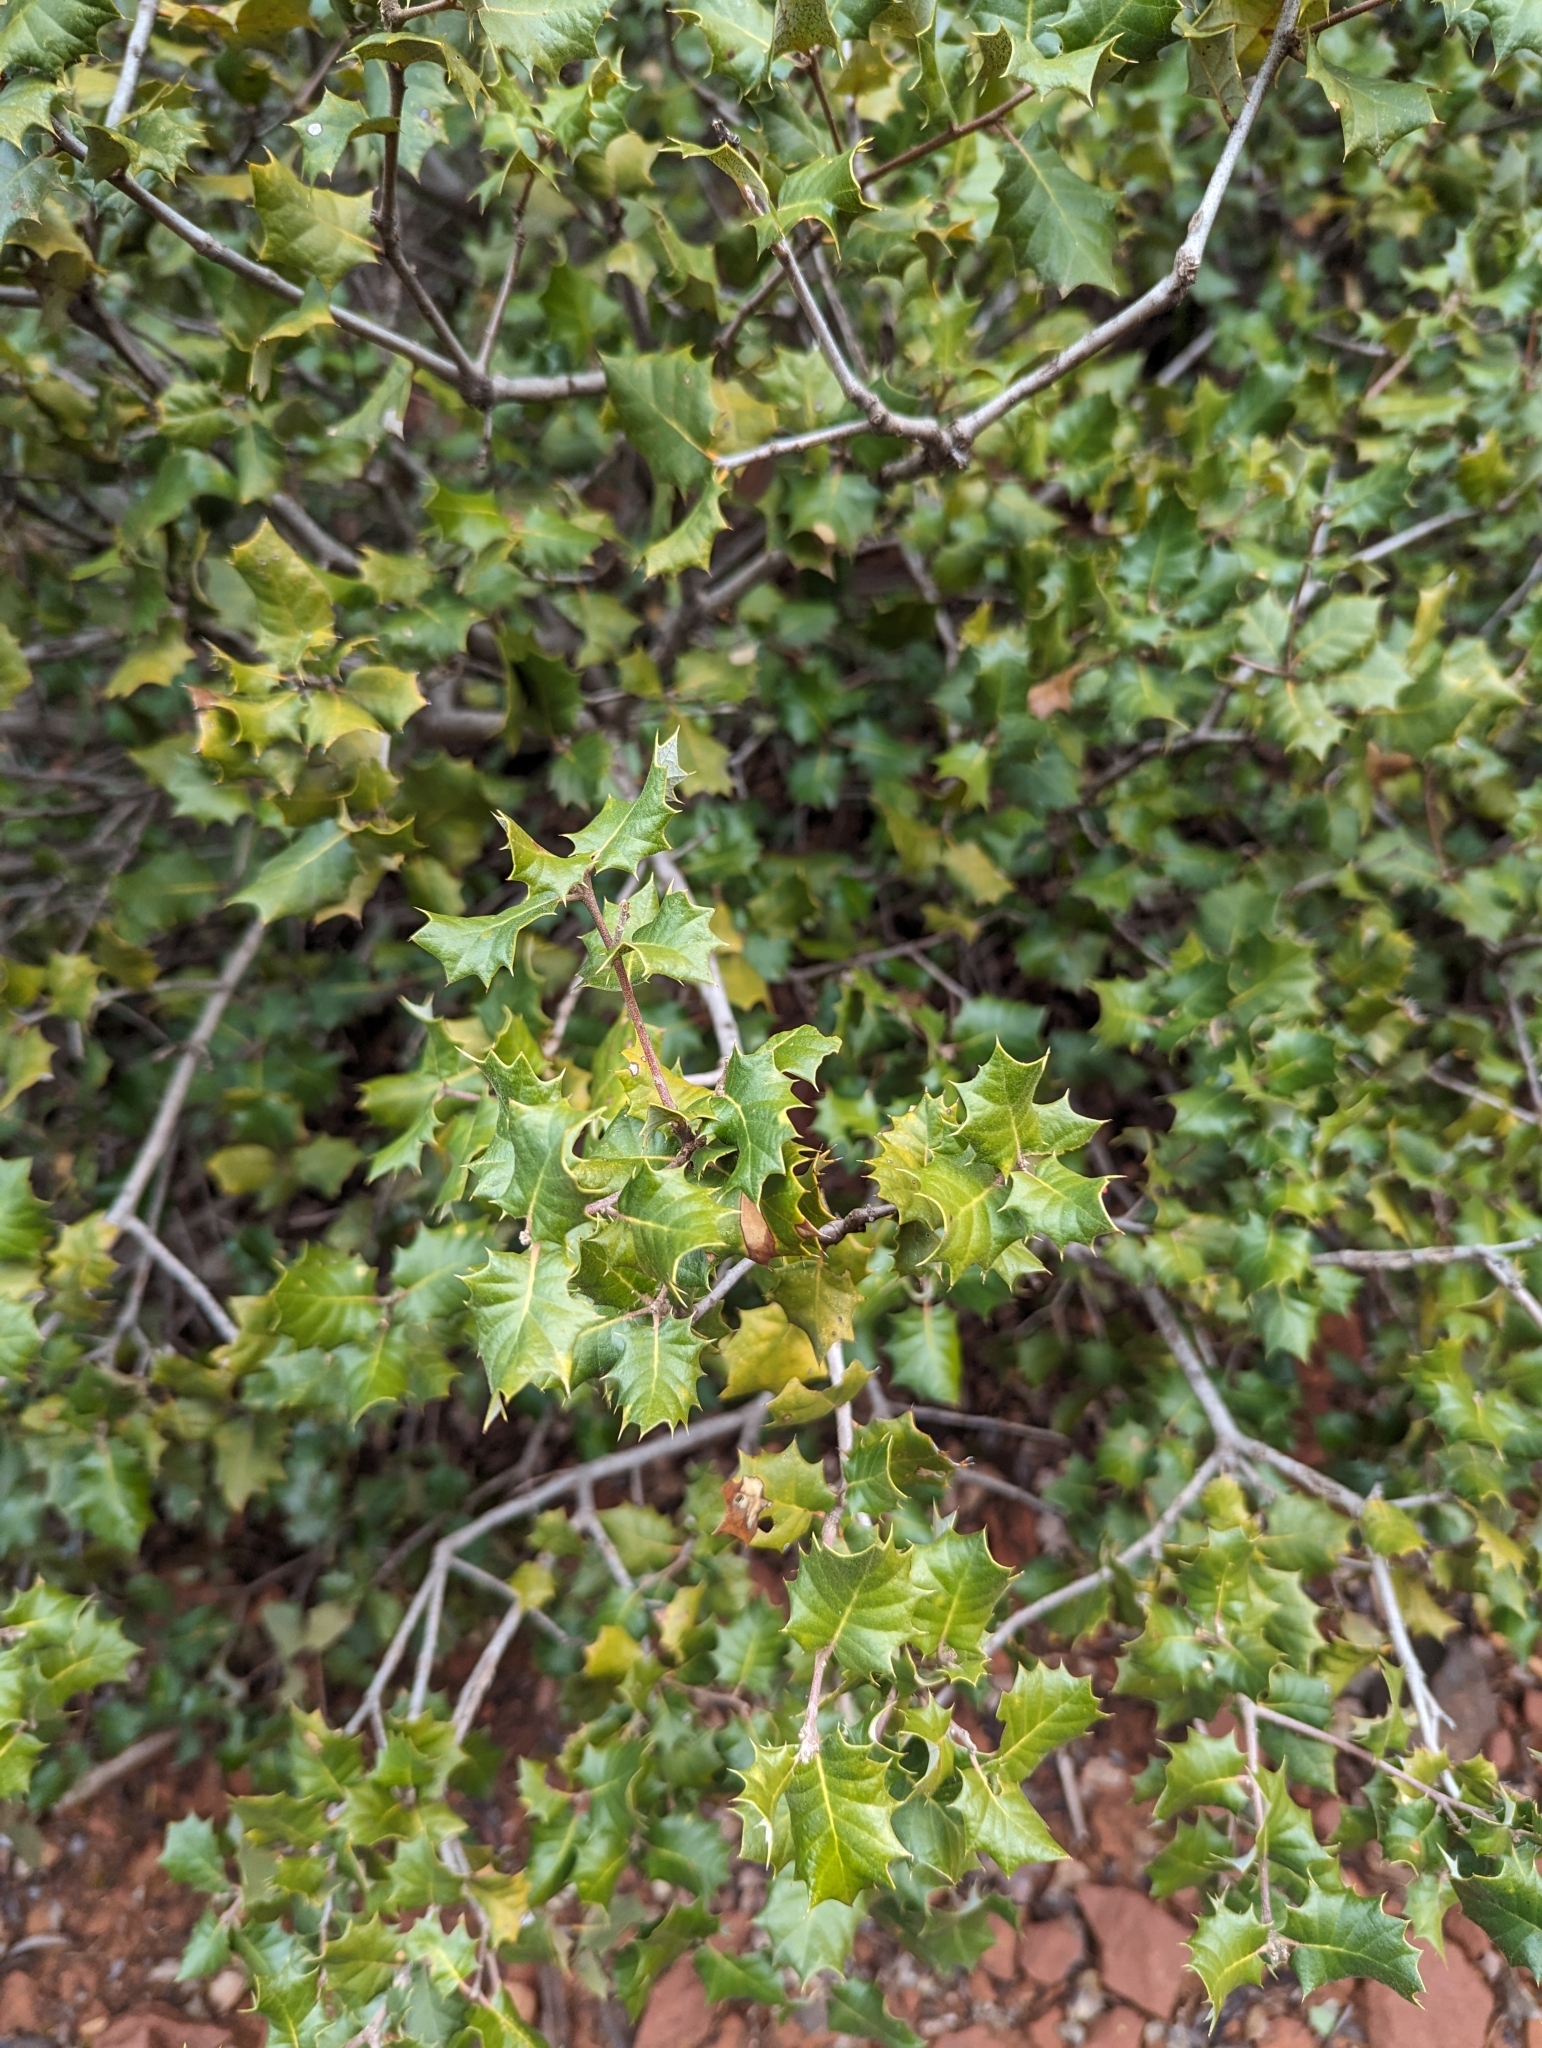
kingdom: Plantae
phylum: Tracheophyta
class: Magnoliopsida
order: Fagales
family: Fagaceae
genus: Quercus
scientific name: Quercus palmeri
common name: Dunn oak
